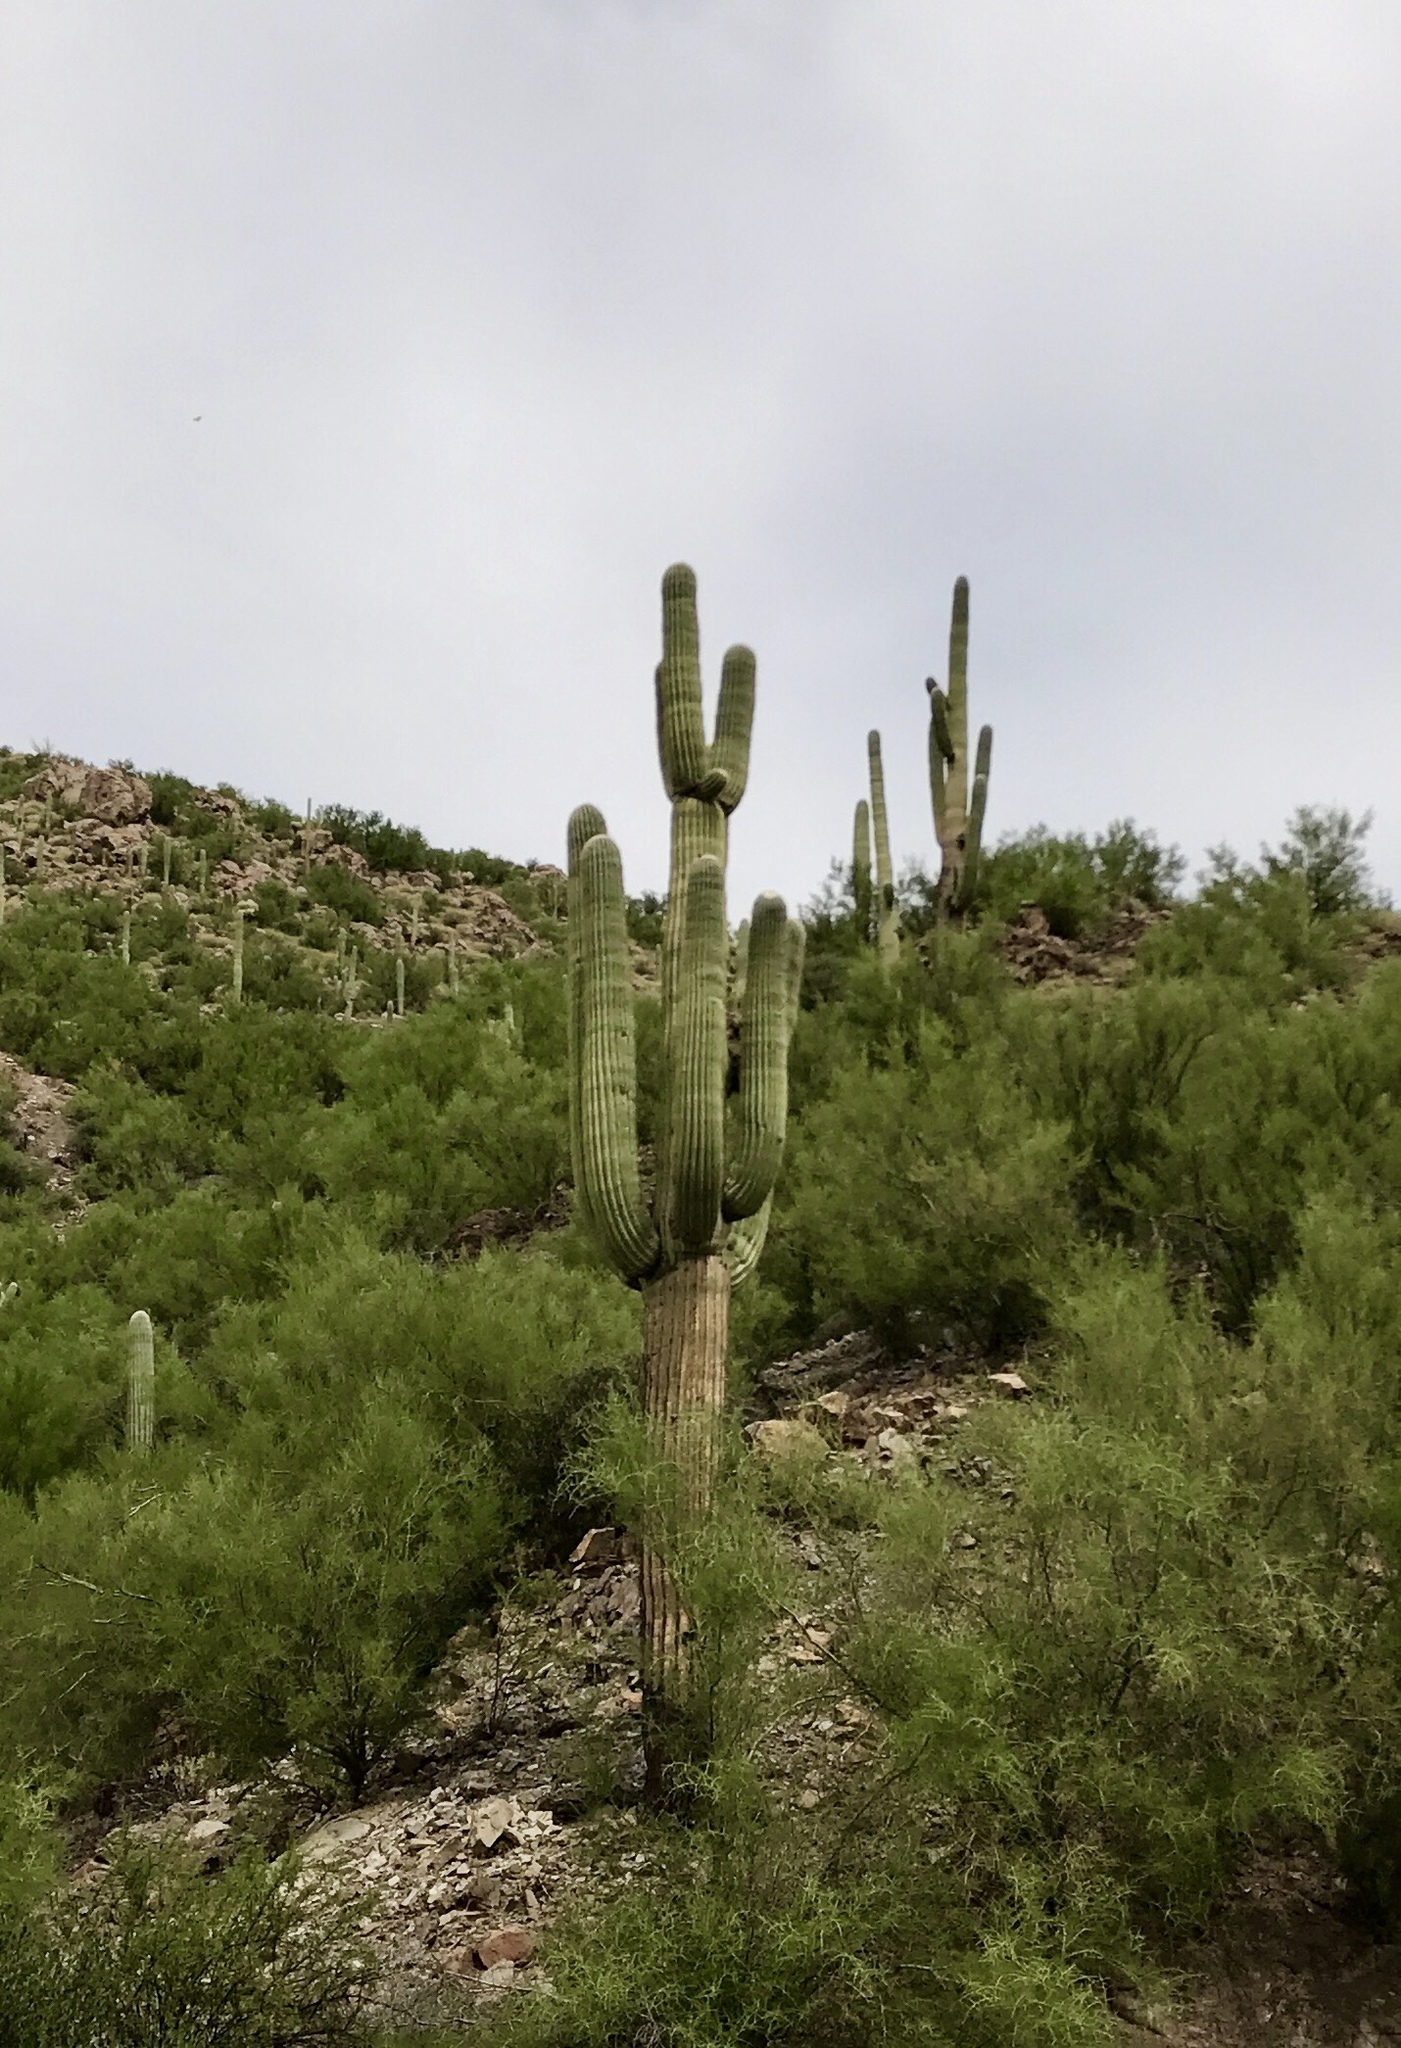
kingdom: Plantae
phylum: Tracheophyta
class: Magnoliopsida
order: Caryophyllales
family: Cactaceae
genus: Carnegiea
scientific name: Carnegiea gigantea
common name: Saguaro
